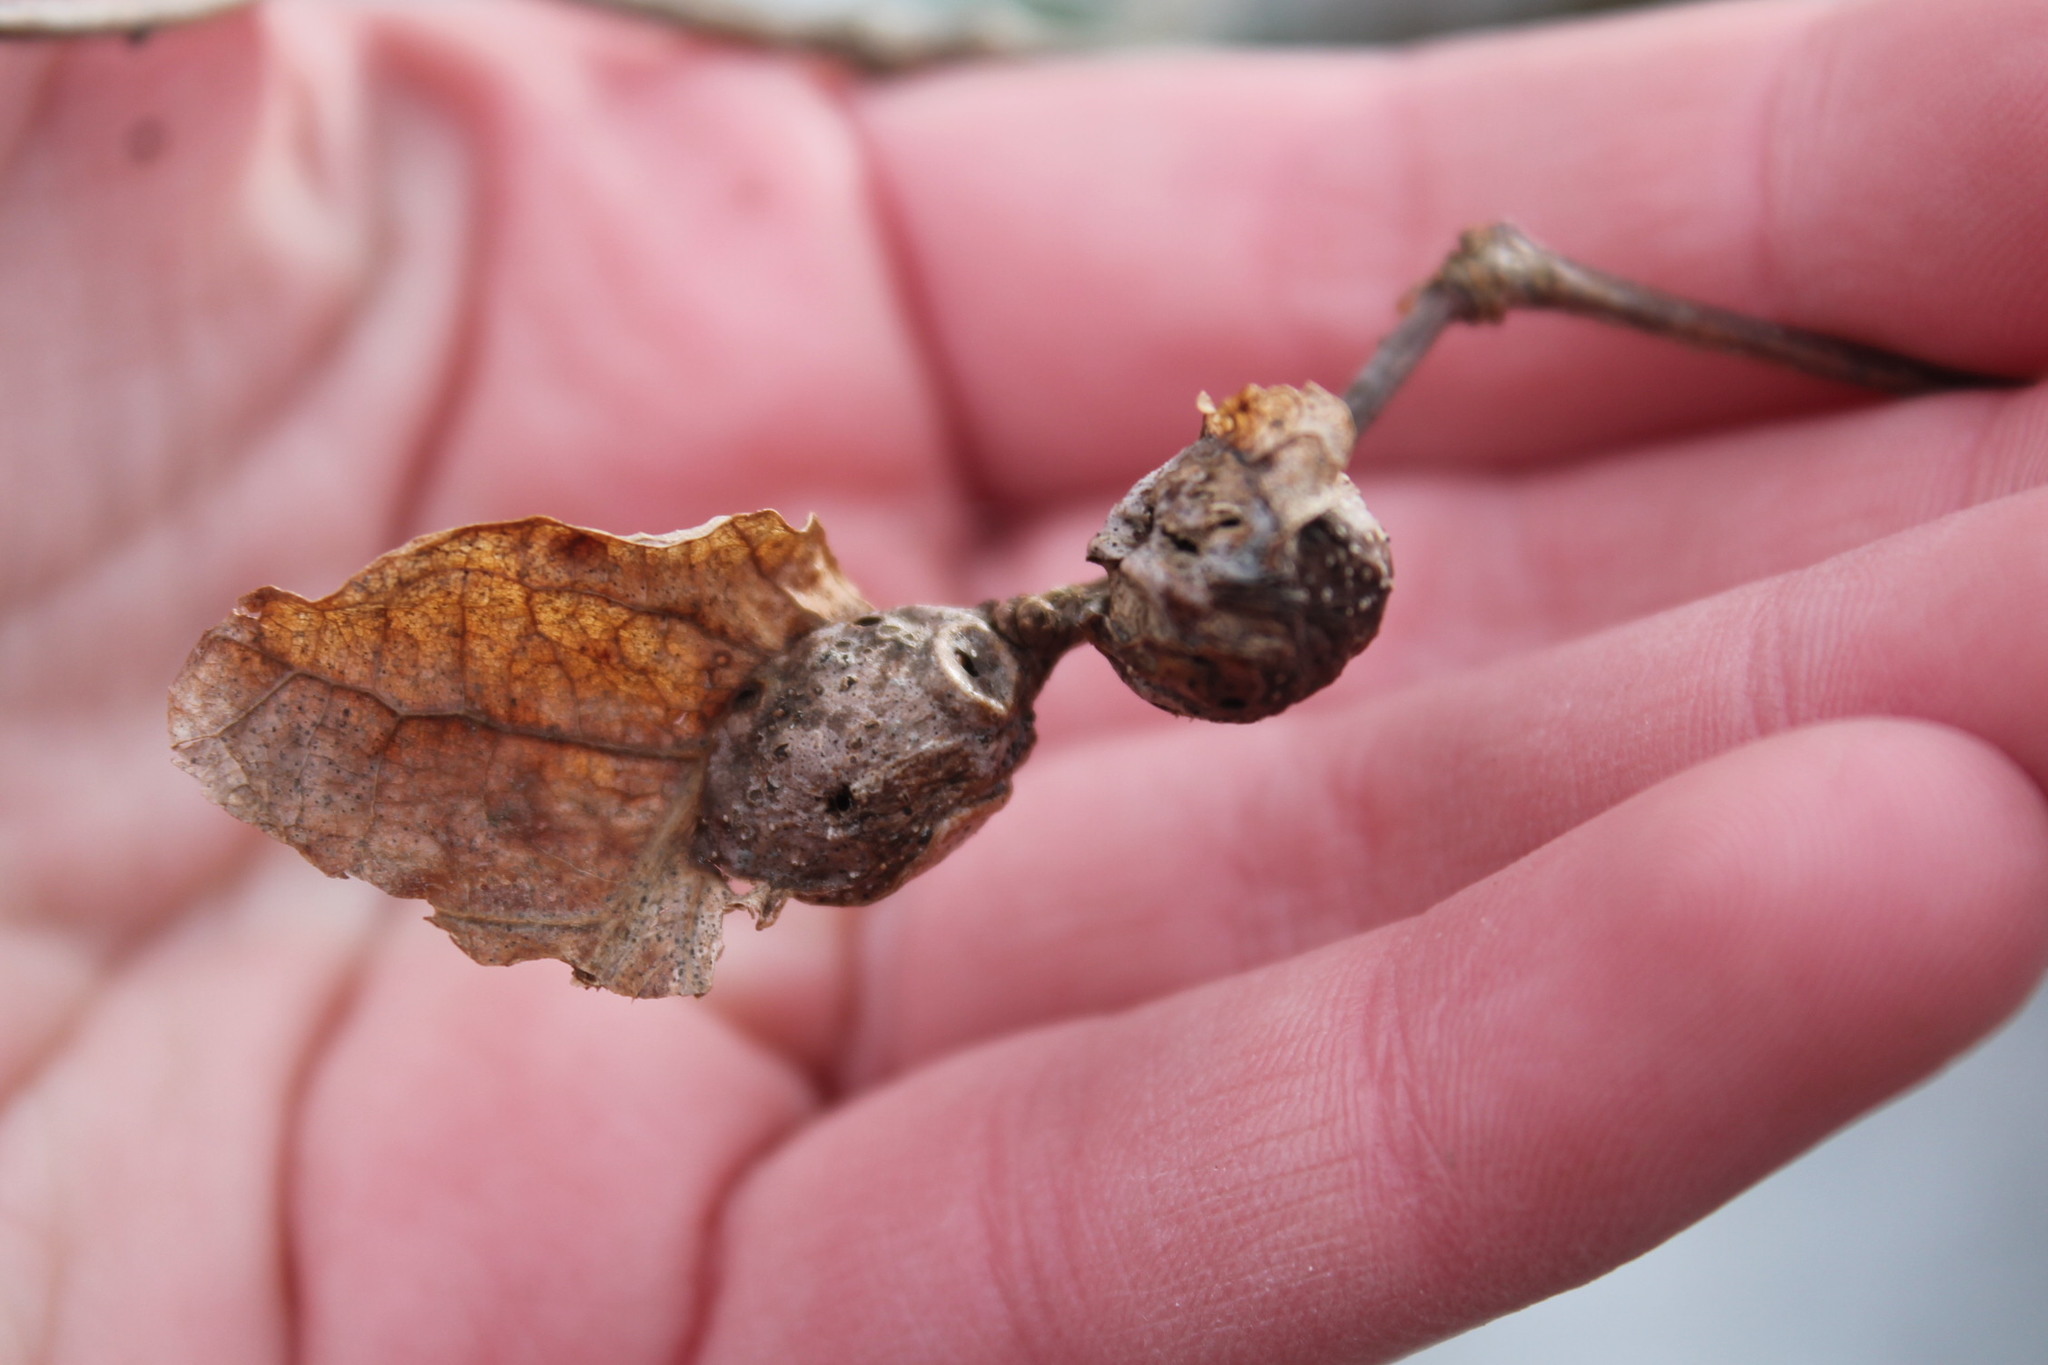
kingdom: Animalia
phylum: Arthropoda
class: Insecta
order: Hymenoptera
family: Cynipidae
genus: Andricus
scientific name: Andricus
